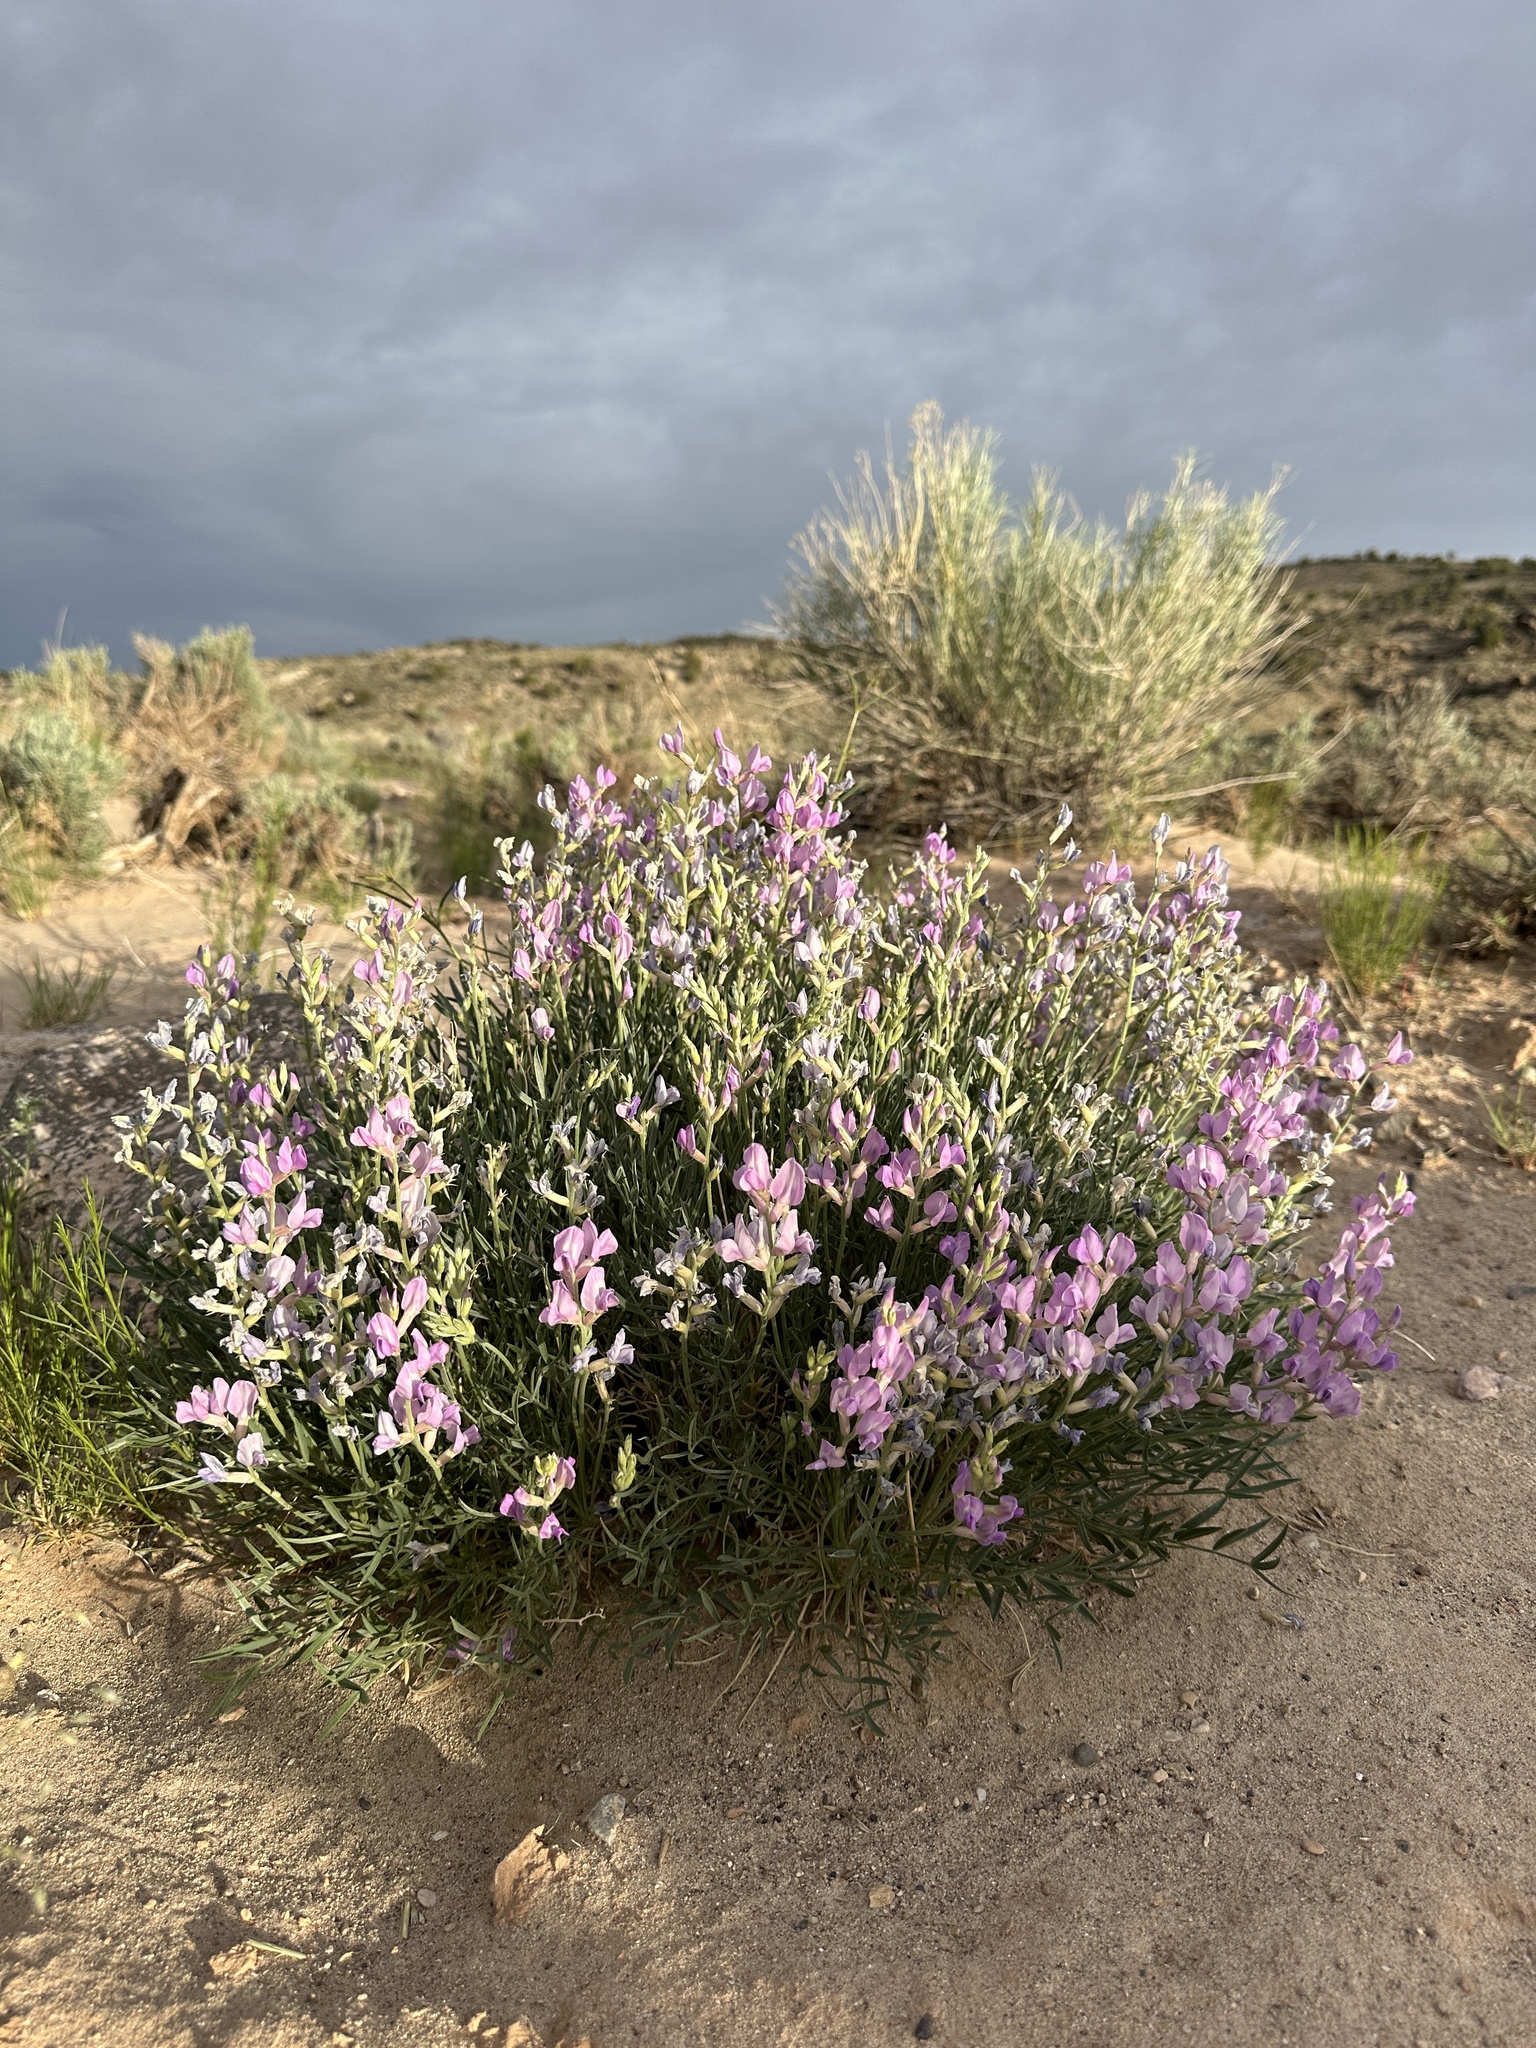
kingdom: Plantae
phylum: Tracheophyta
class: Magnoliopsida
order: Fabales
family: Fabaceae
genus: Oxytropis
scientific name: Oxytropis lambertii
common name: Purple locoweed
